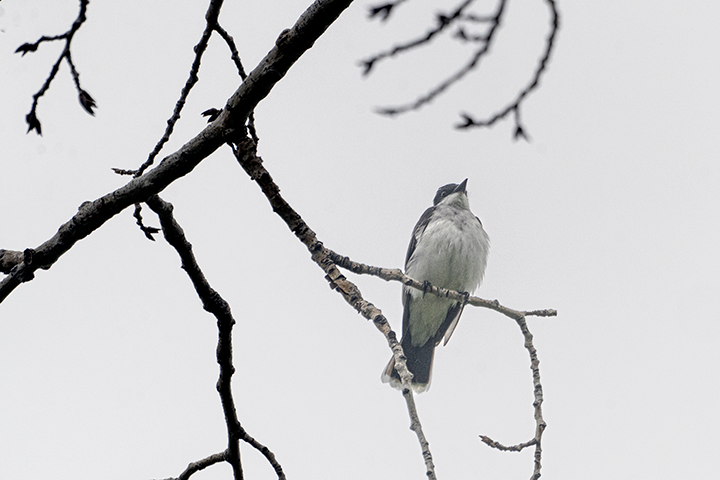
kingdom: Animalia
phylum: Chordata
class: Aves
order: Passeriformes
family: Tyrannidae
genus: Tyrannus
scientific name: Tyrannus tyrannus
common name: Eastern kingbird
